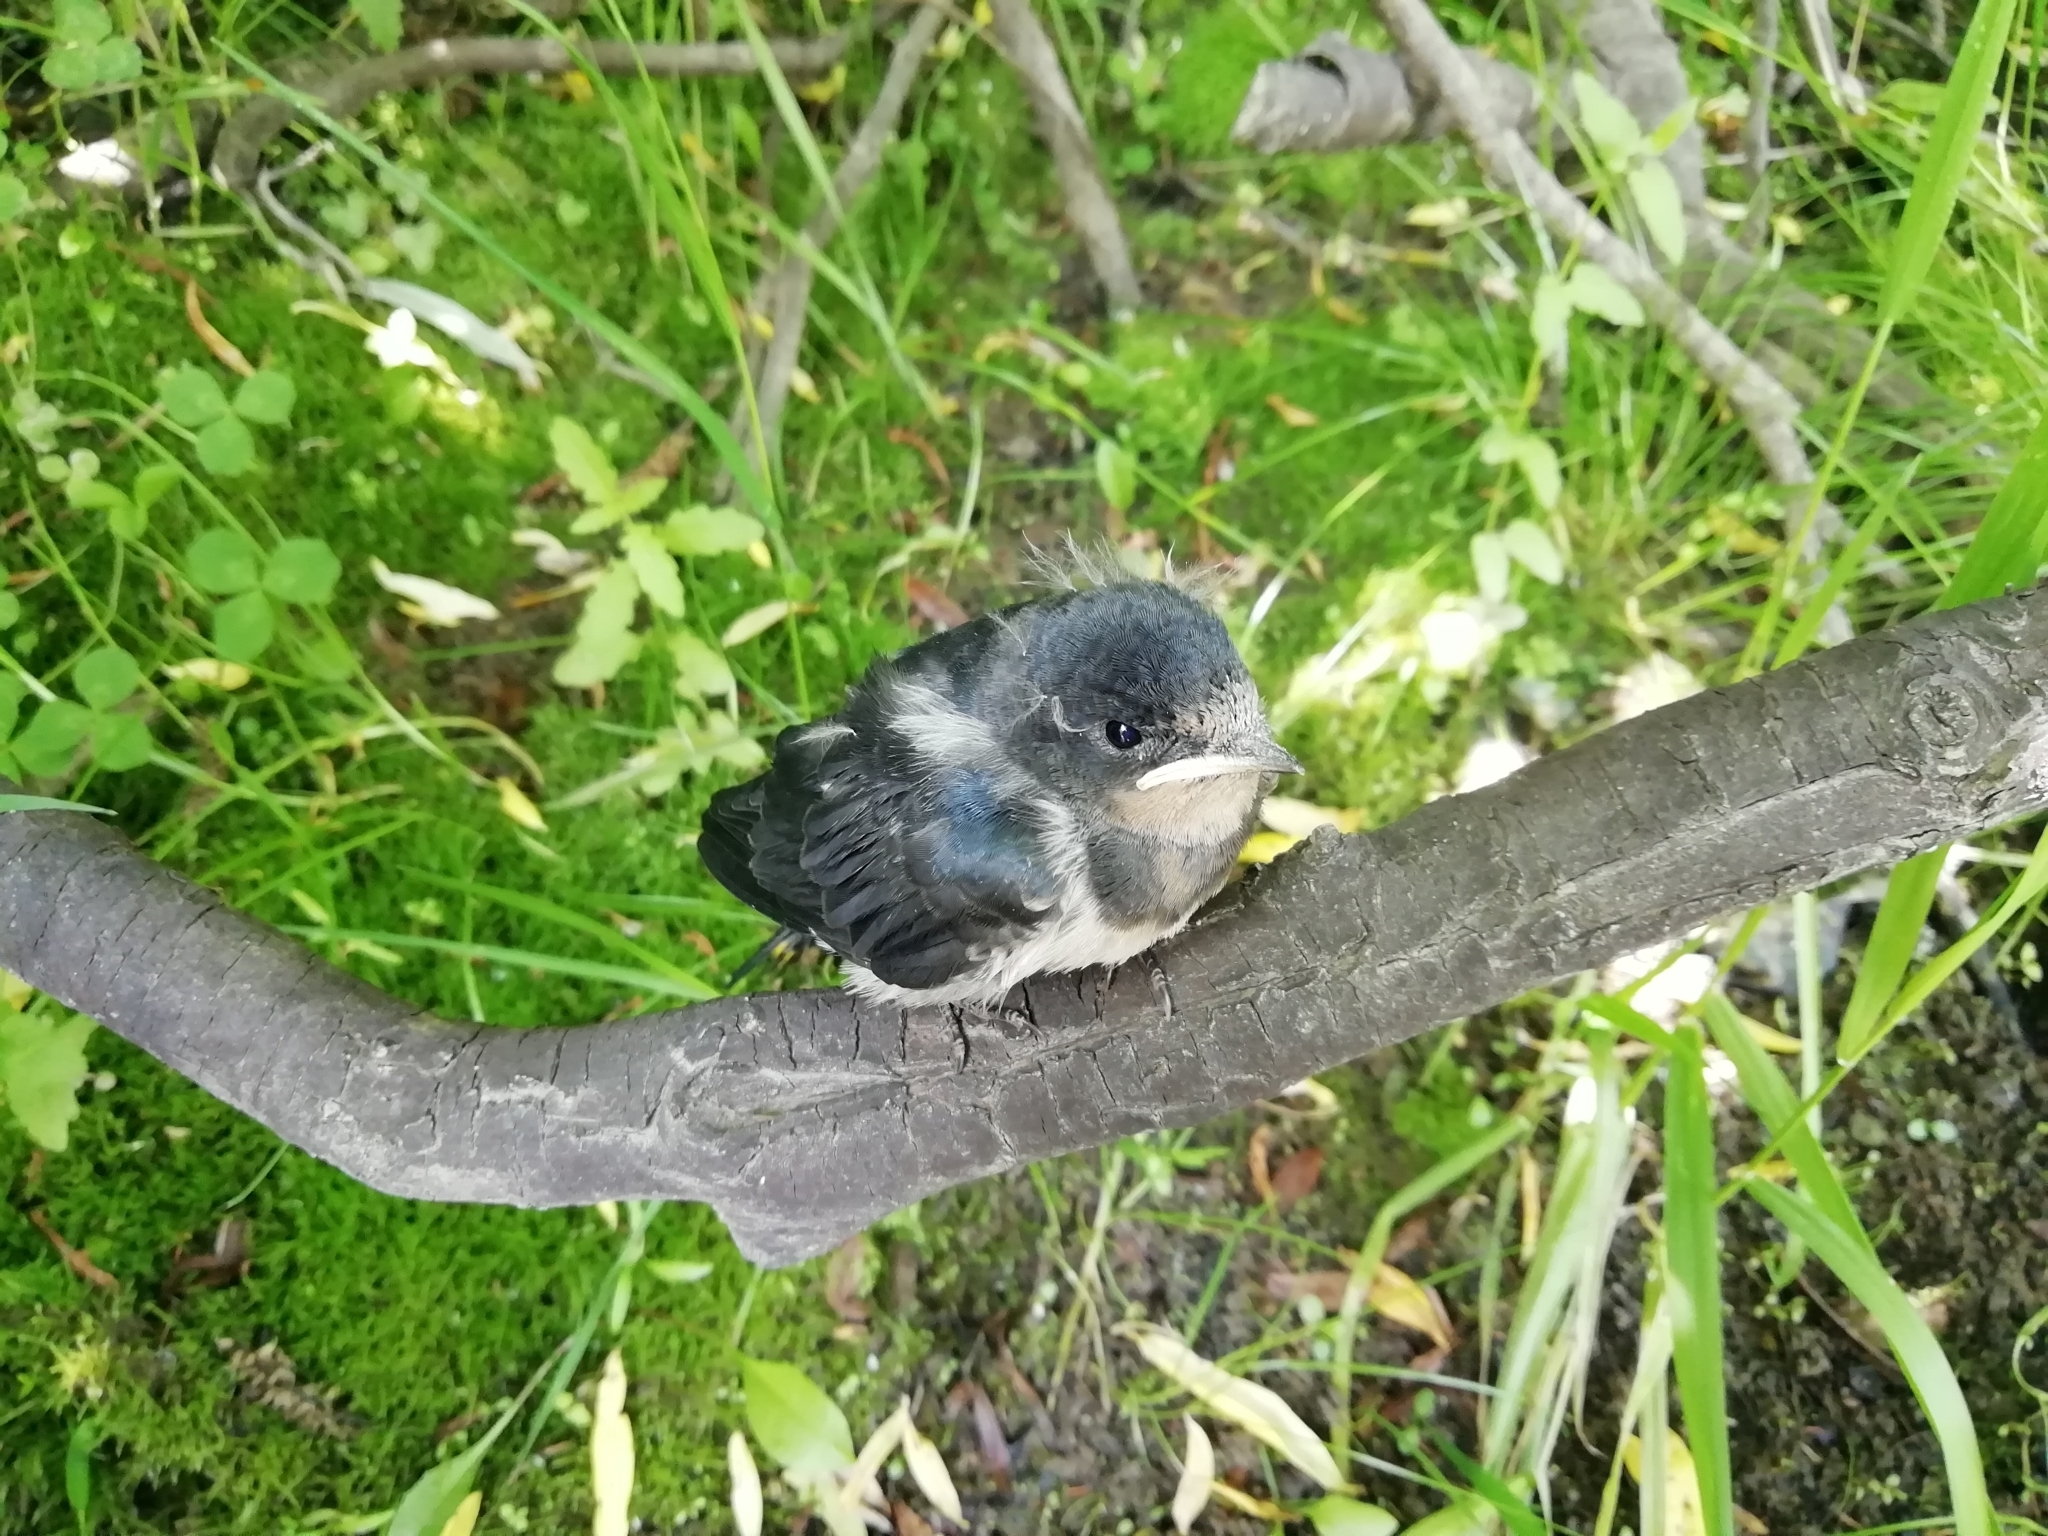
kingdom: Animalia
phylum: Chordata
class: Aves
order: Passeriformes
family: Hirundinidae
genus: Hirundo
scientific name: Hirundo rustica
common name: Barn swallow
